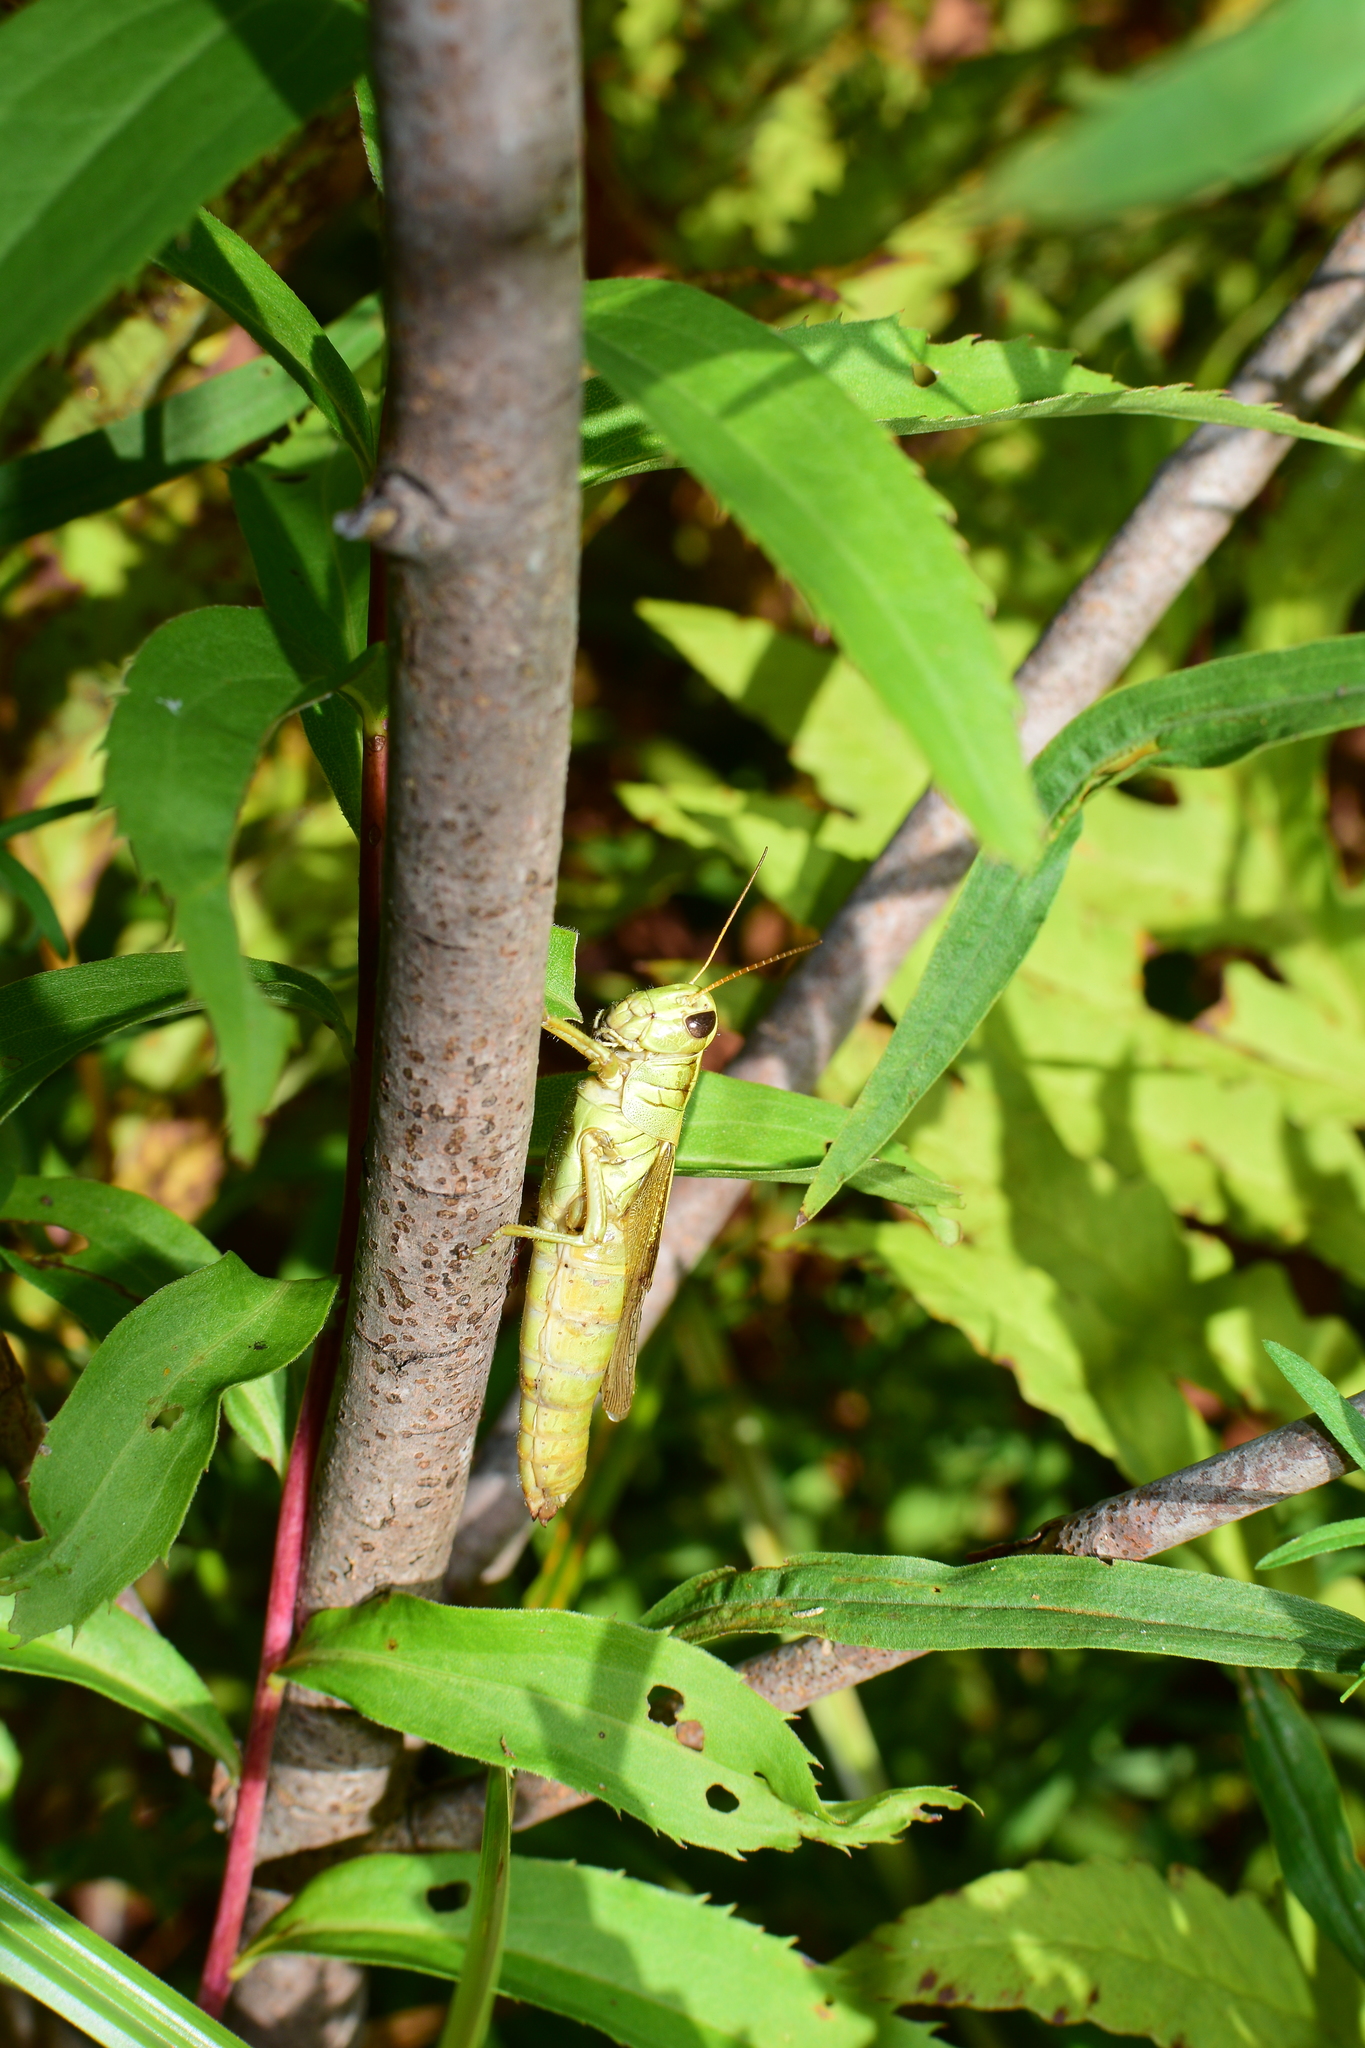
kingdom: Animalia
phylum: Arthropoda
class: Insecta
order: Orthoptera
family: Acrididae
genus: Melanoplus
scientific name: Melanoplus bivittatus
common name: Two-striped grasshopper
